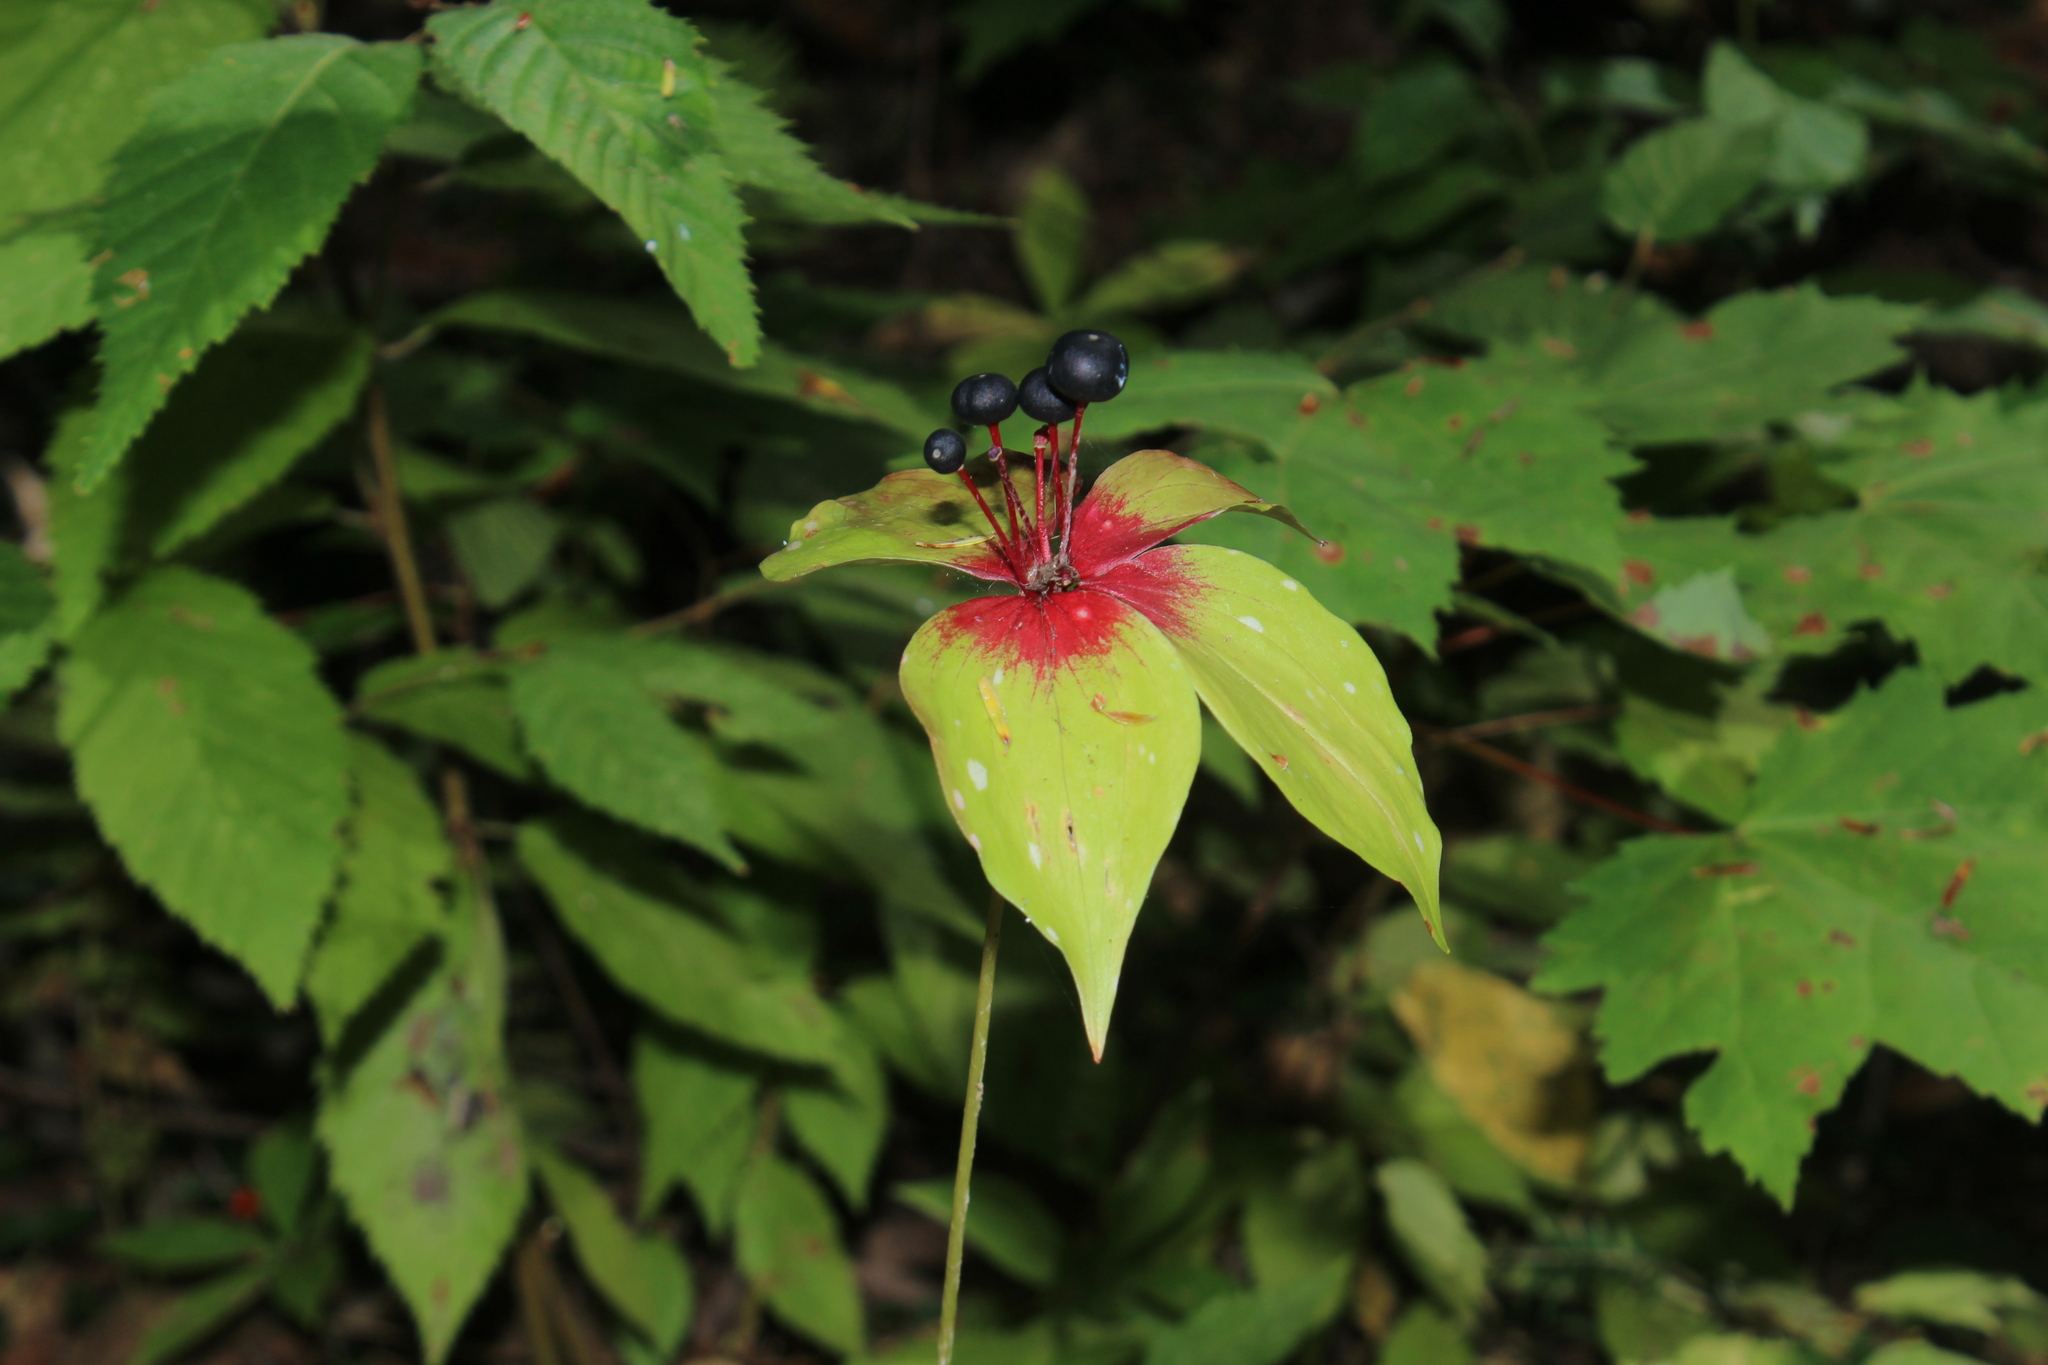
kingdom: Plantae
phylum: Tracheophyta
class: Liliopsida
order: Liliales
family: Liliaceae
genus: Medeola
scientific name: Medeola virginiana
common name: Indian cucumber-root
